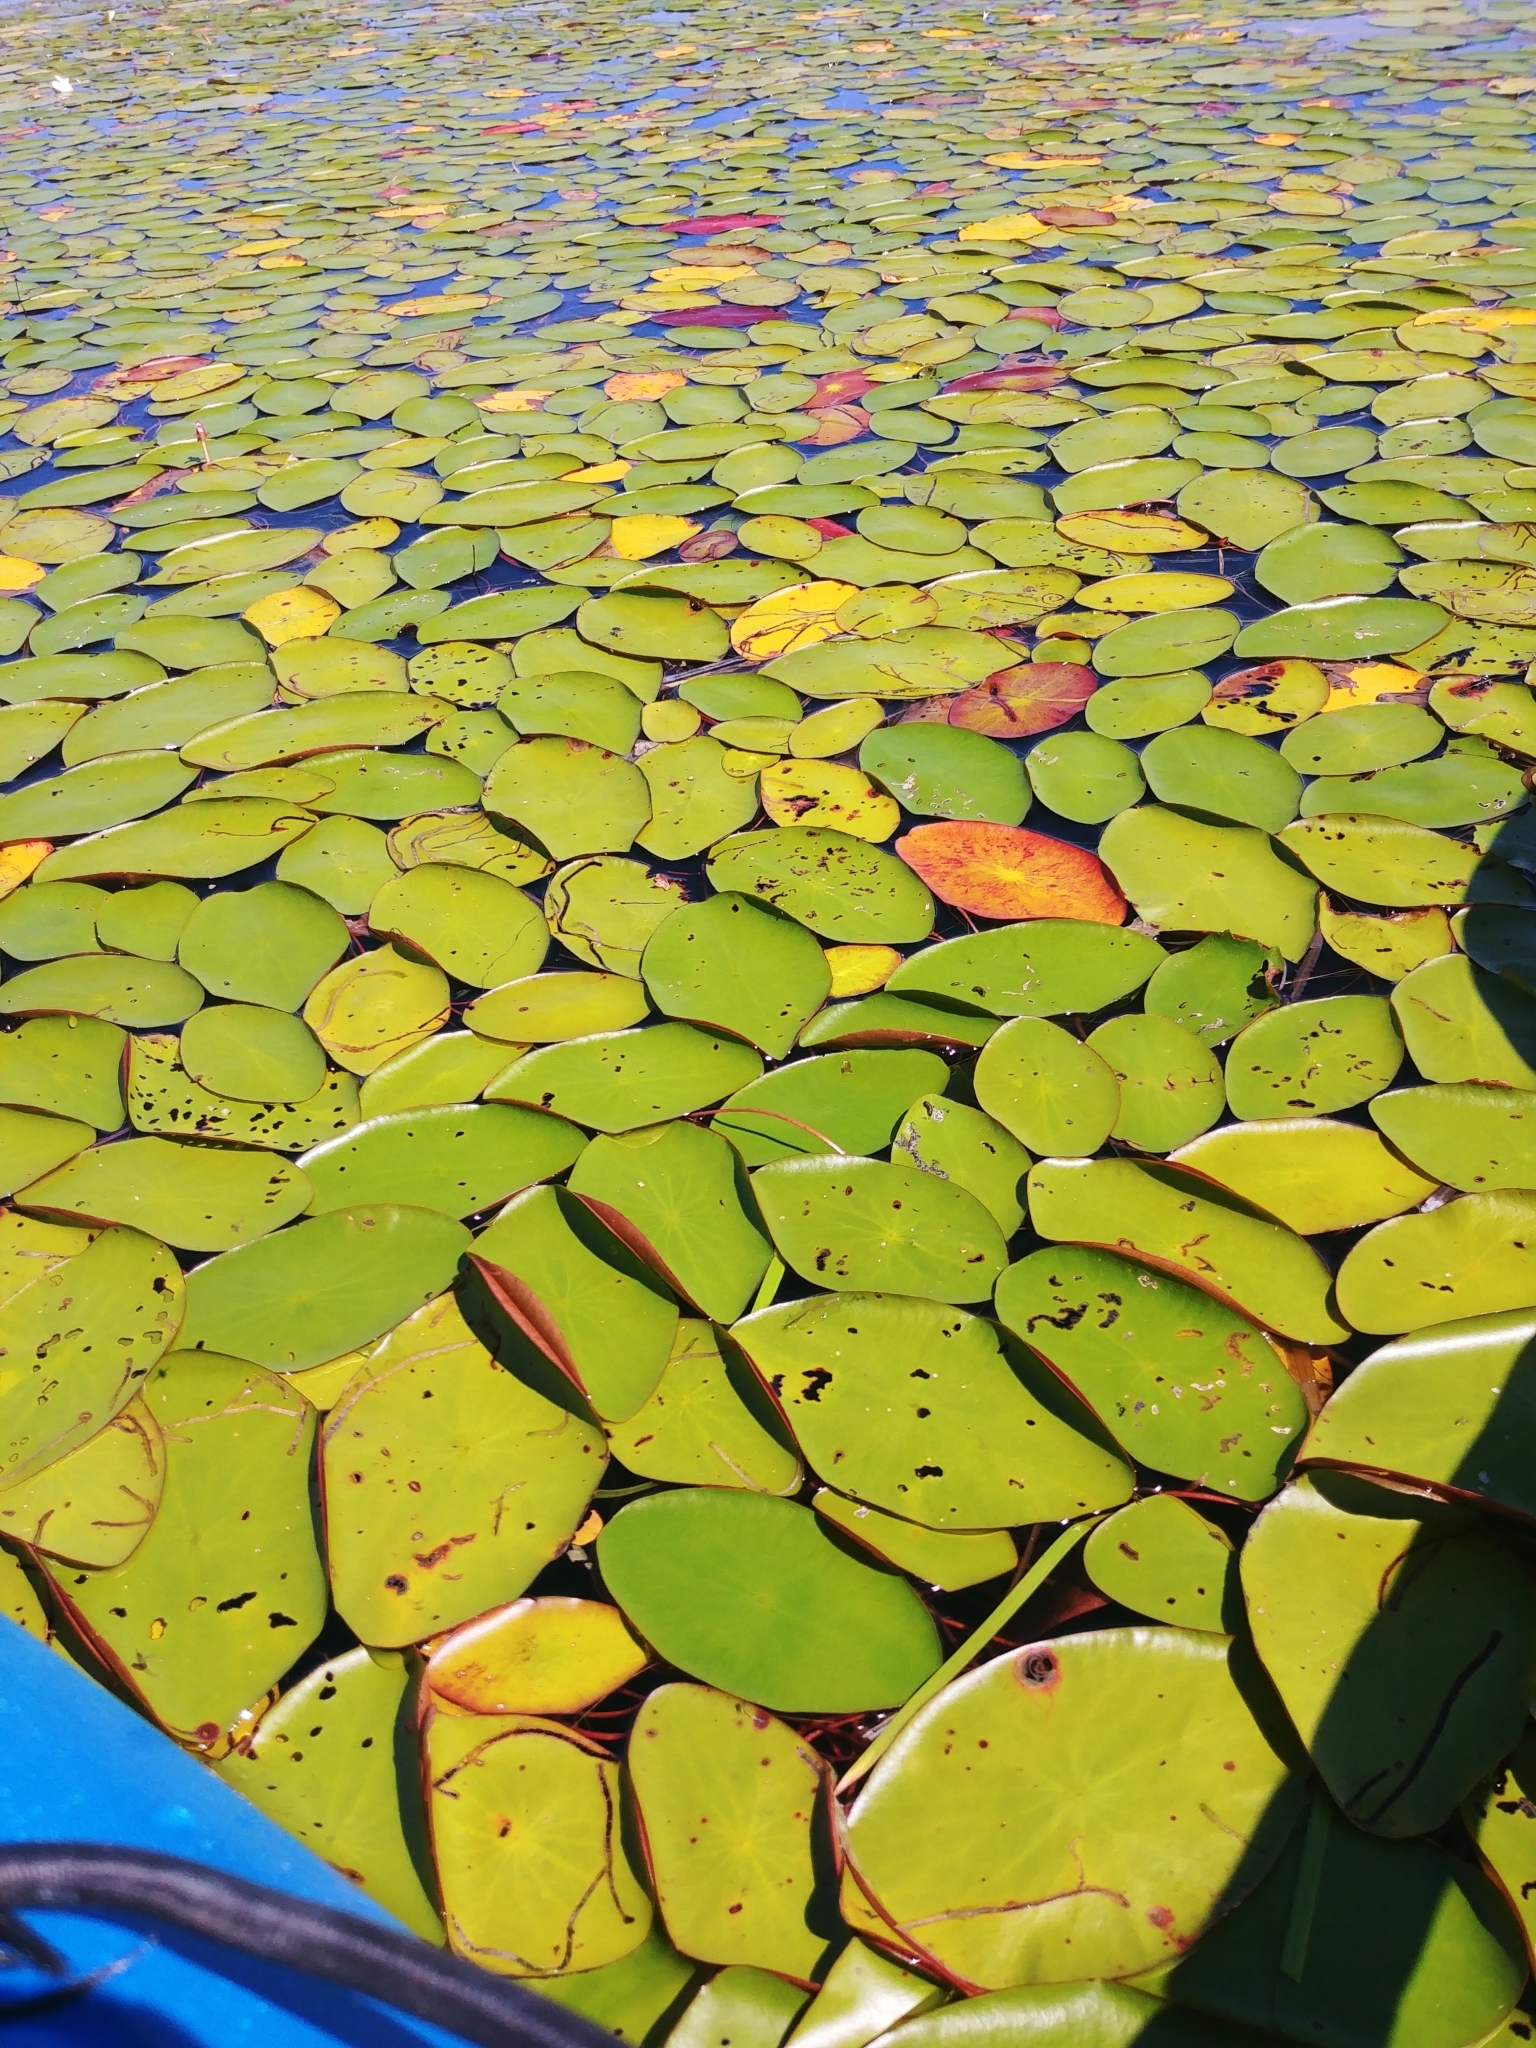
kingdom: Plantae
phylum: Tracheophyta
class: Magnoliopsida
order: Nymphaeales
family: Cabombaceae
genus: Brasenia
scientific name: Brasenia schreberi
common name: Water-shield
